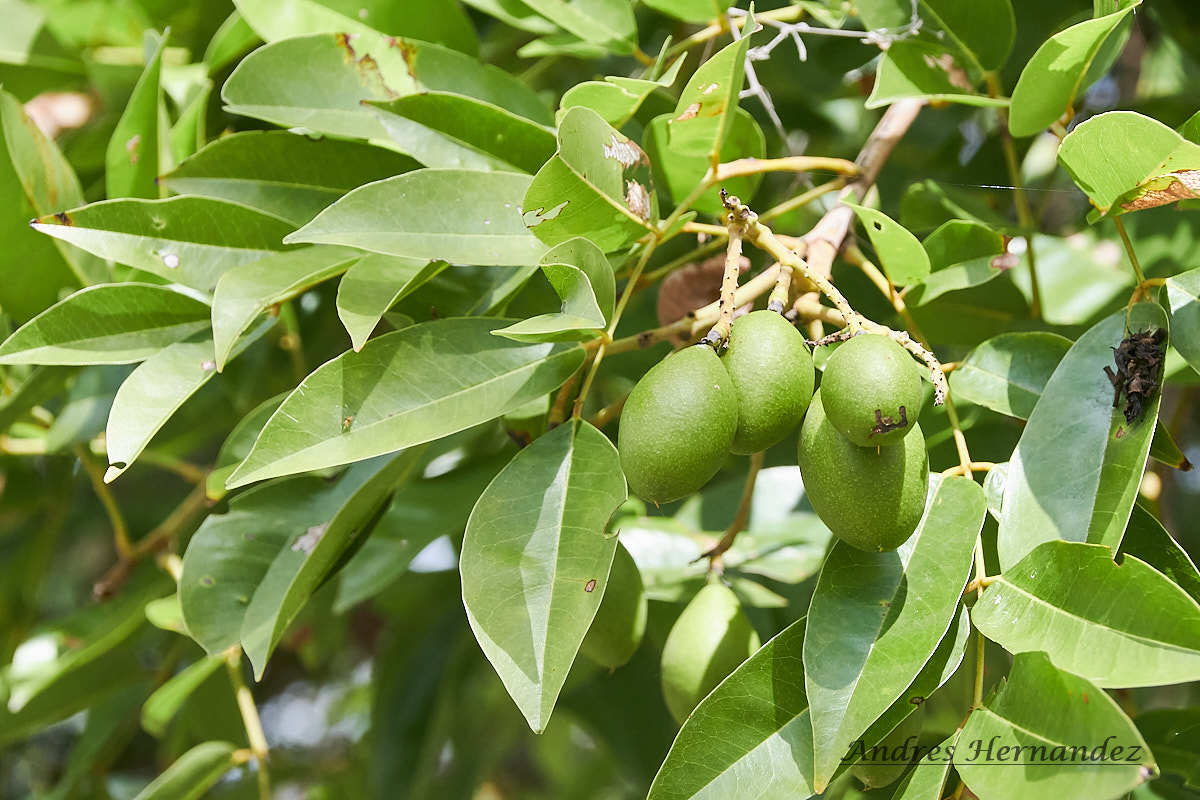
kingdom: Plantae
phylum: Tracheophyta
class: Magnoliopsida
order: Fabales
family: Fabaceae
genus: Andira
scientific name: Andira inermis
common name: Angelin
